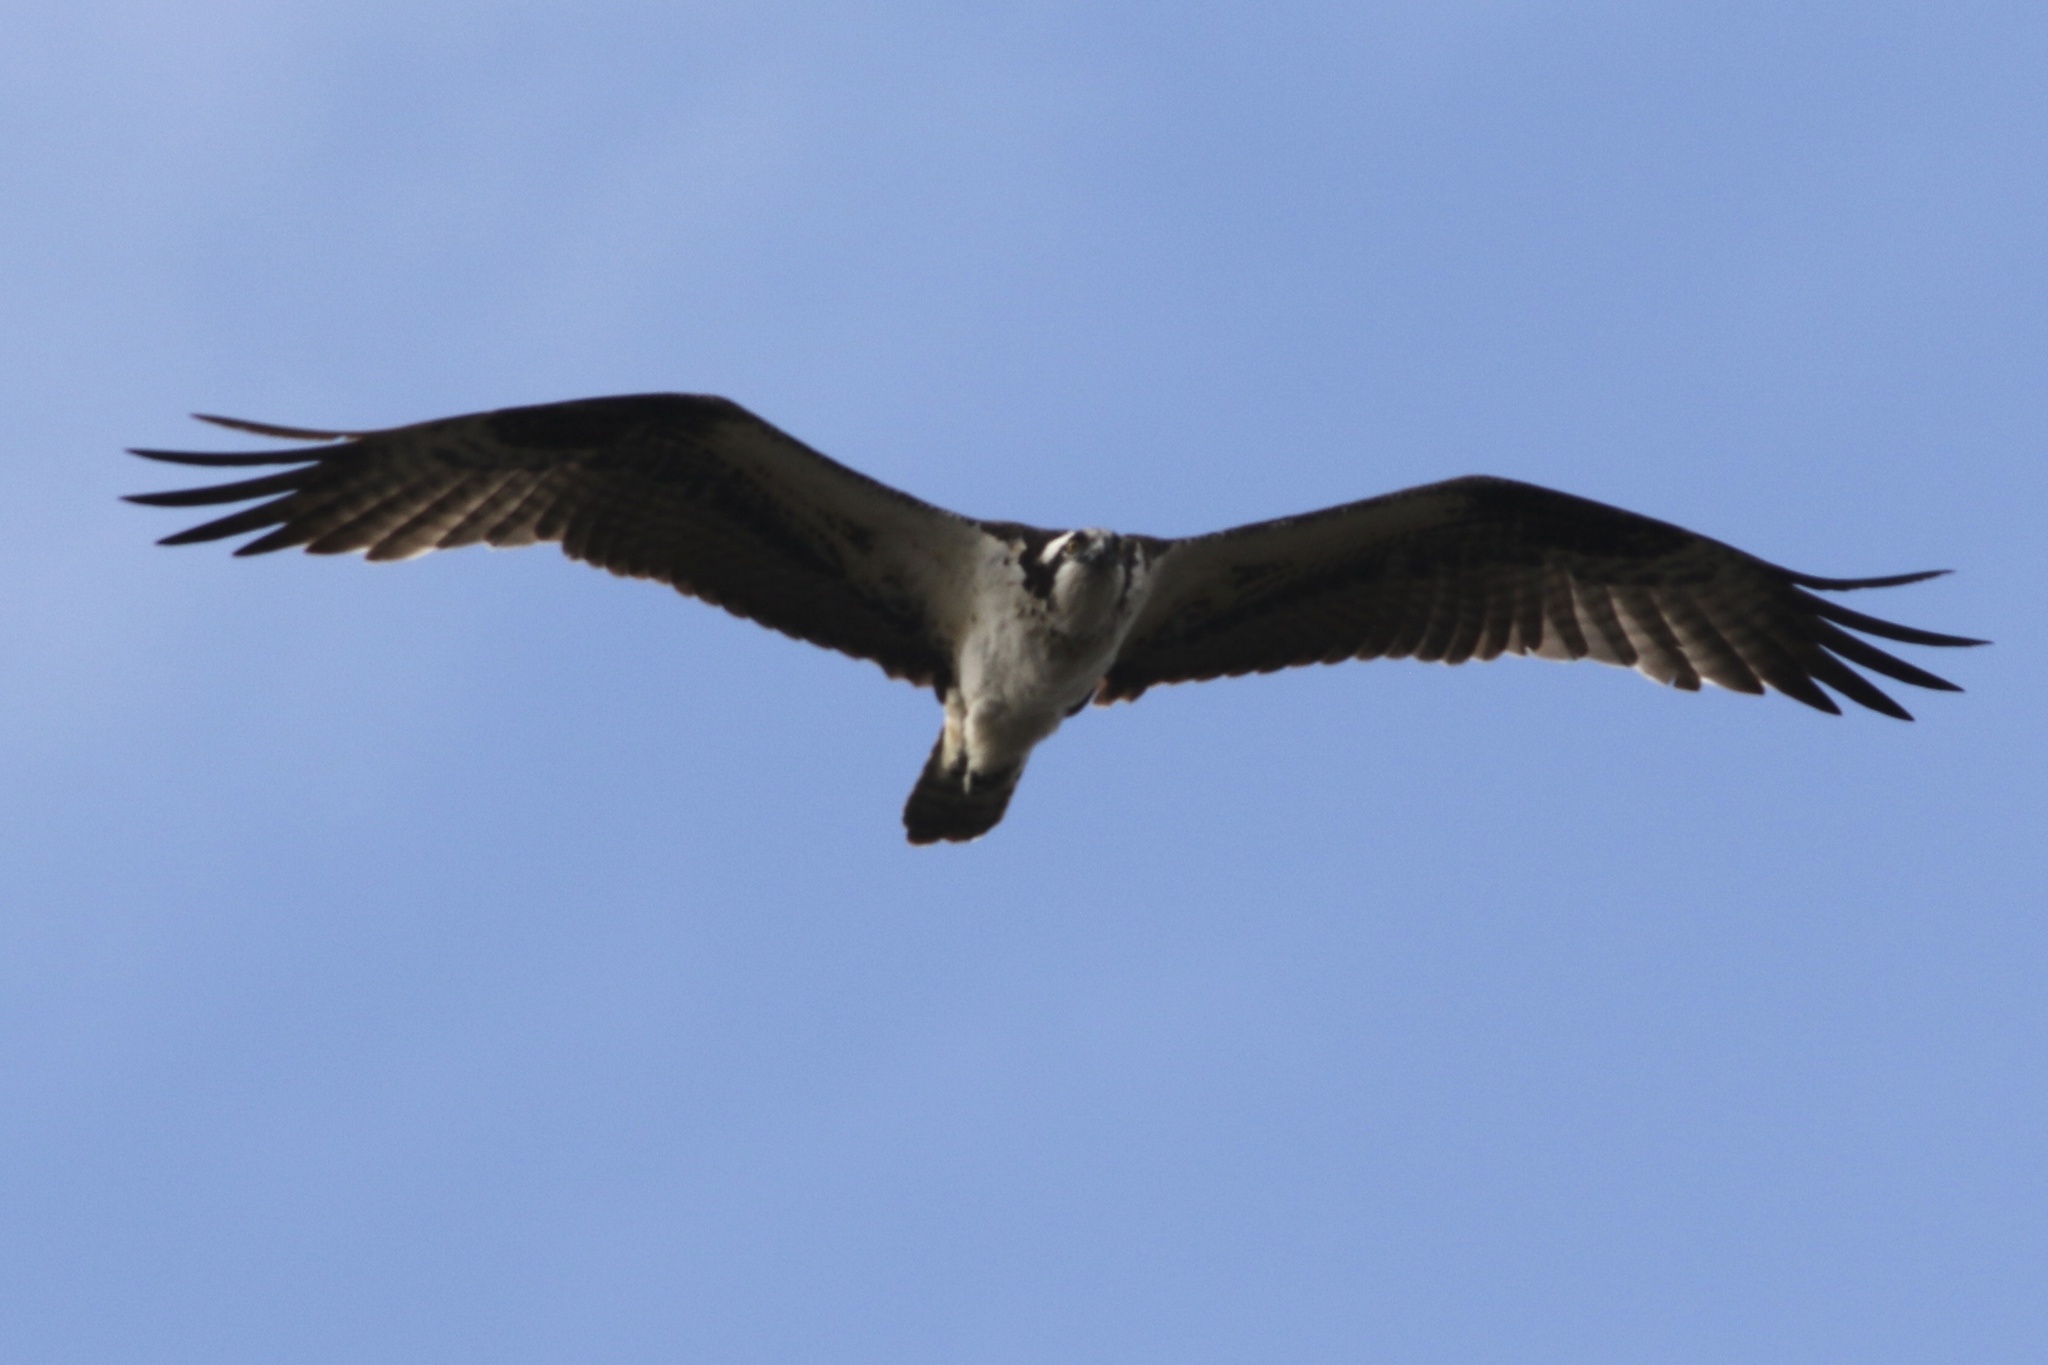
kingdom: Animalia
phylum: Chordata
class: Aves
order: Accipitriformes
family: Pandionidae
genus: Pandion
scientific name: Pandion haliaetus
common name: Osprey
